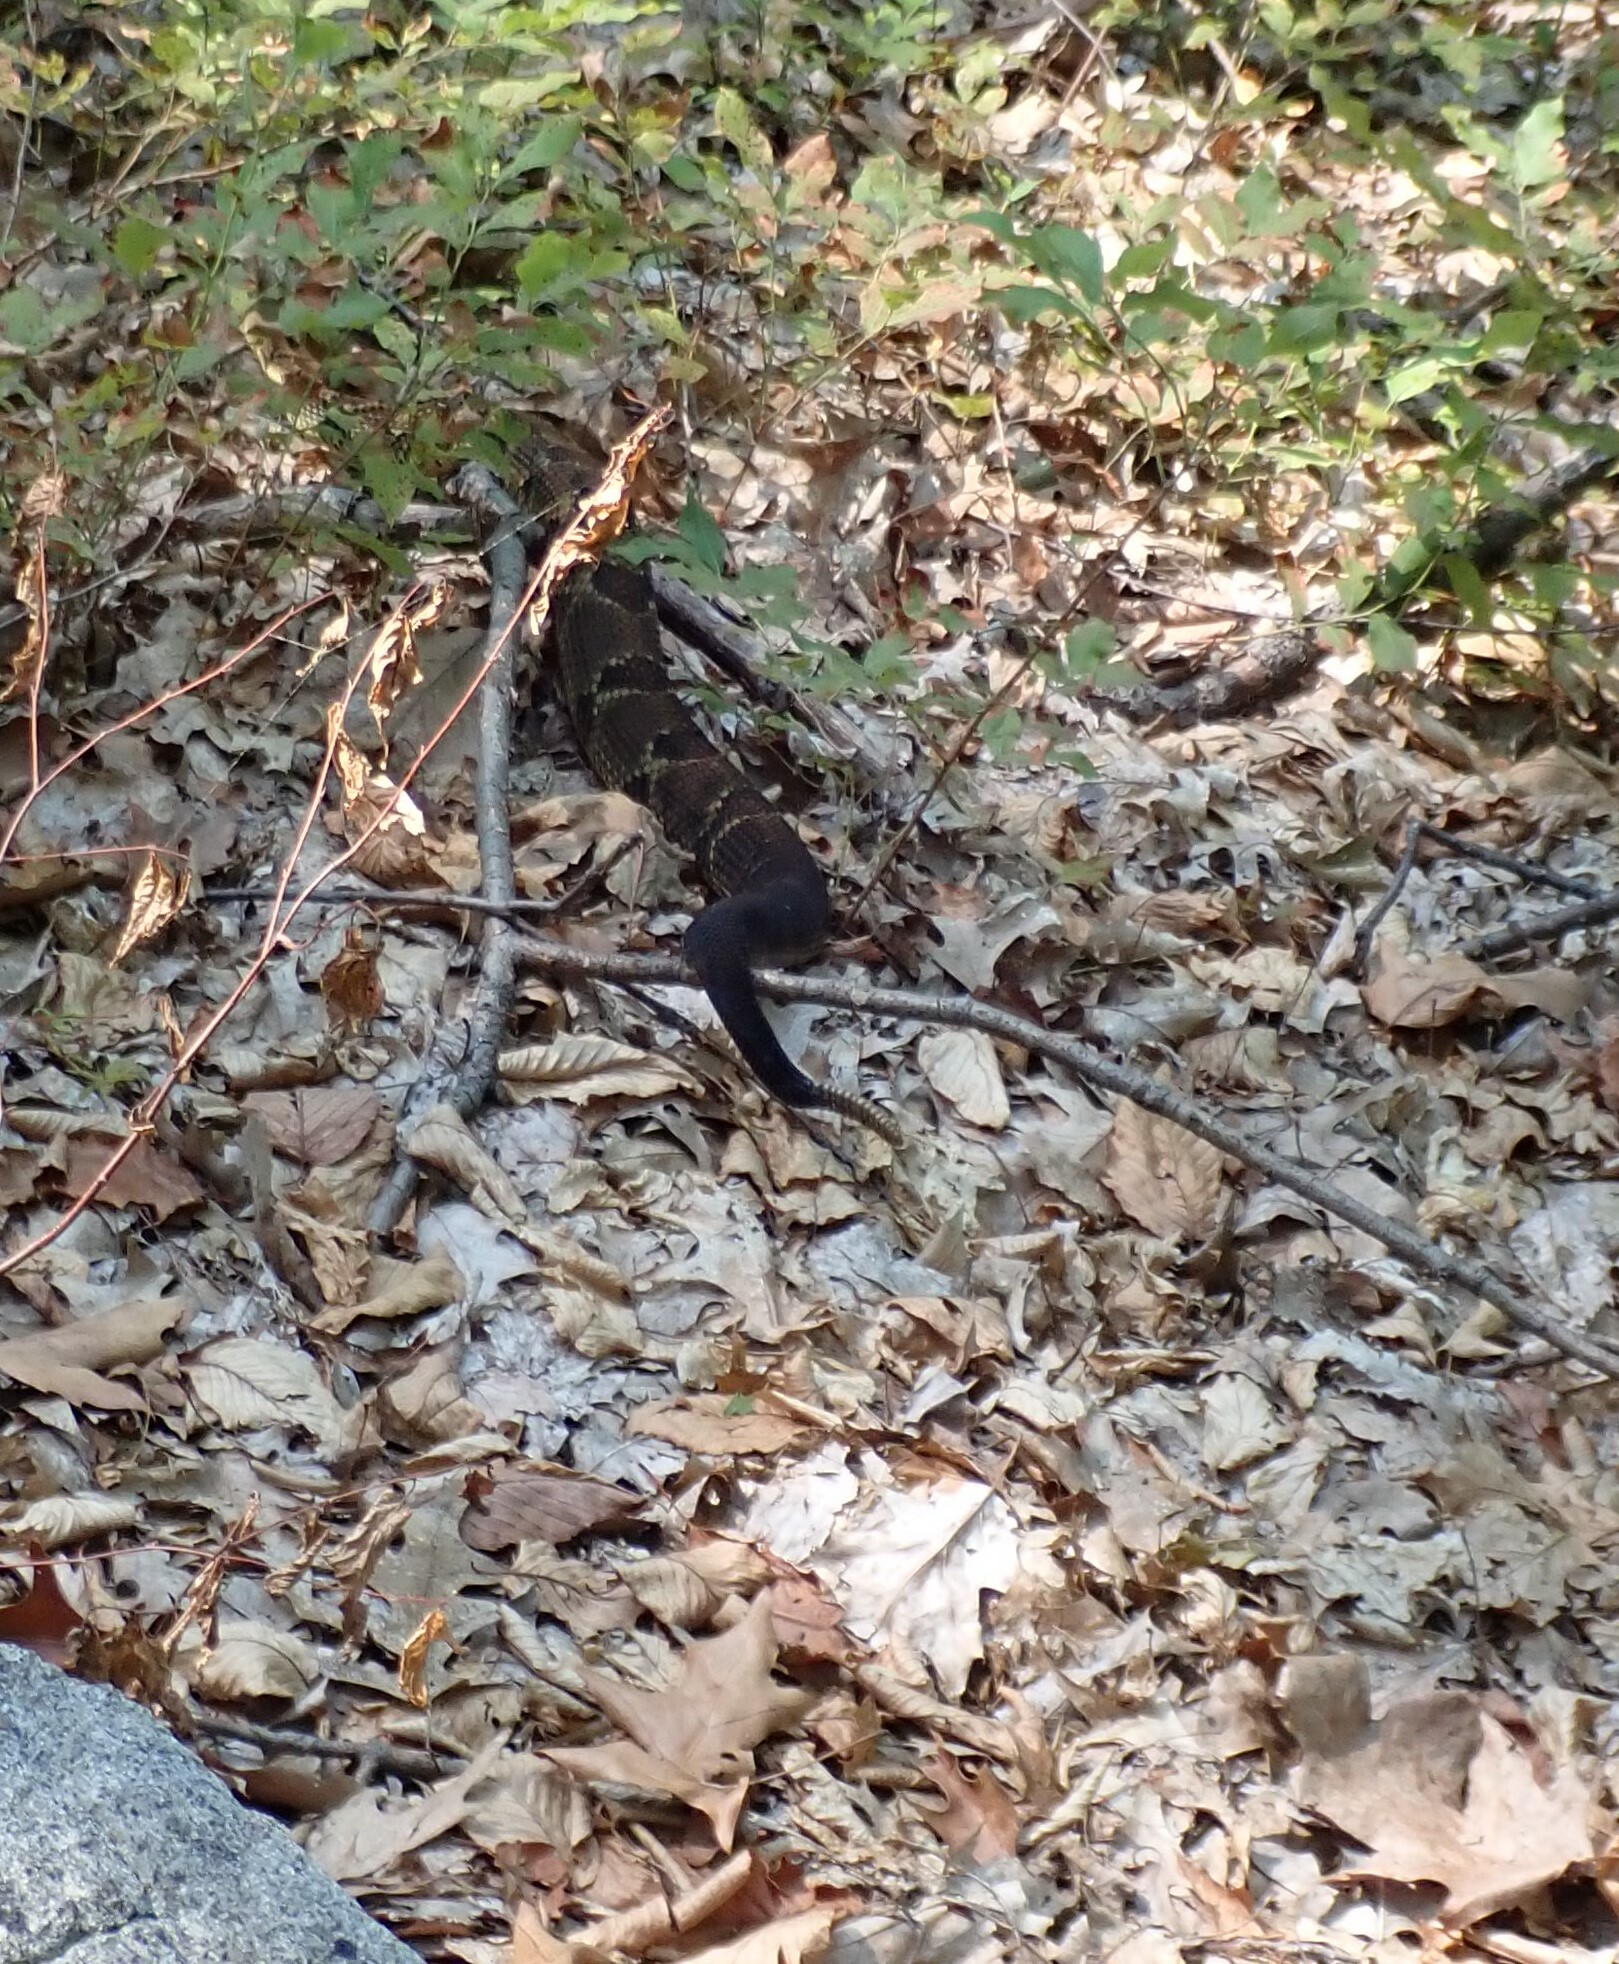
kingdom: Animalia
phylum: Chordata
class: Squamata
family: Viperidae
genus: Crotalus
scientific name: Crotalus horridus
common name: Timber rattlesnake
